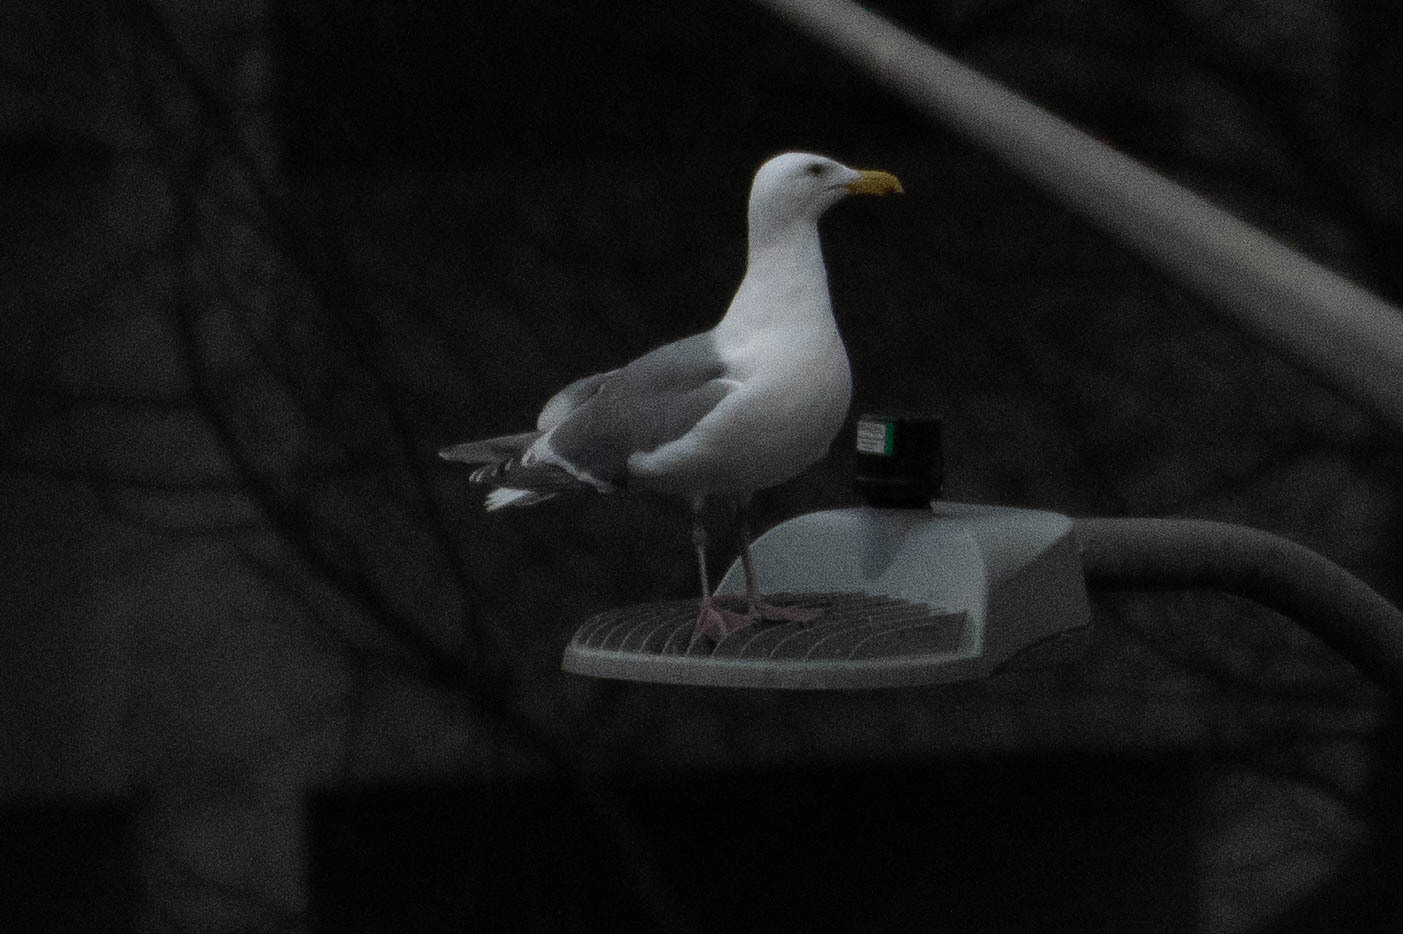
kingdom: Animalia
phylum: Chordata
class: Aves
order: Charadriiformes
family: Laridae
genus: Larus
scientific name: Larus
